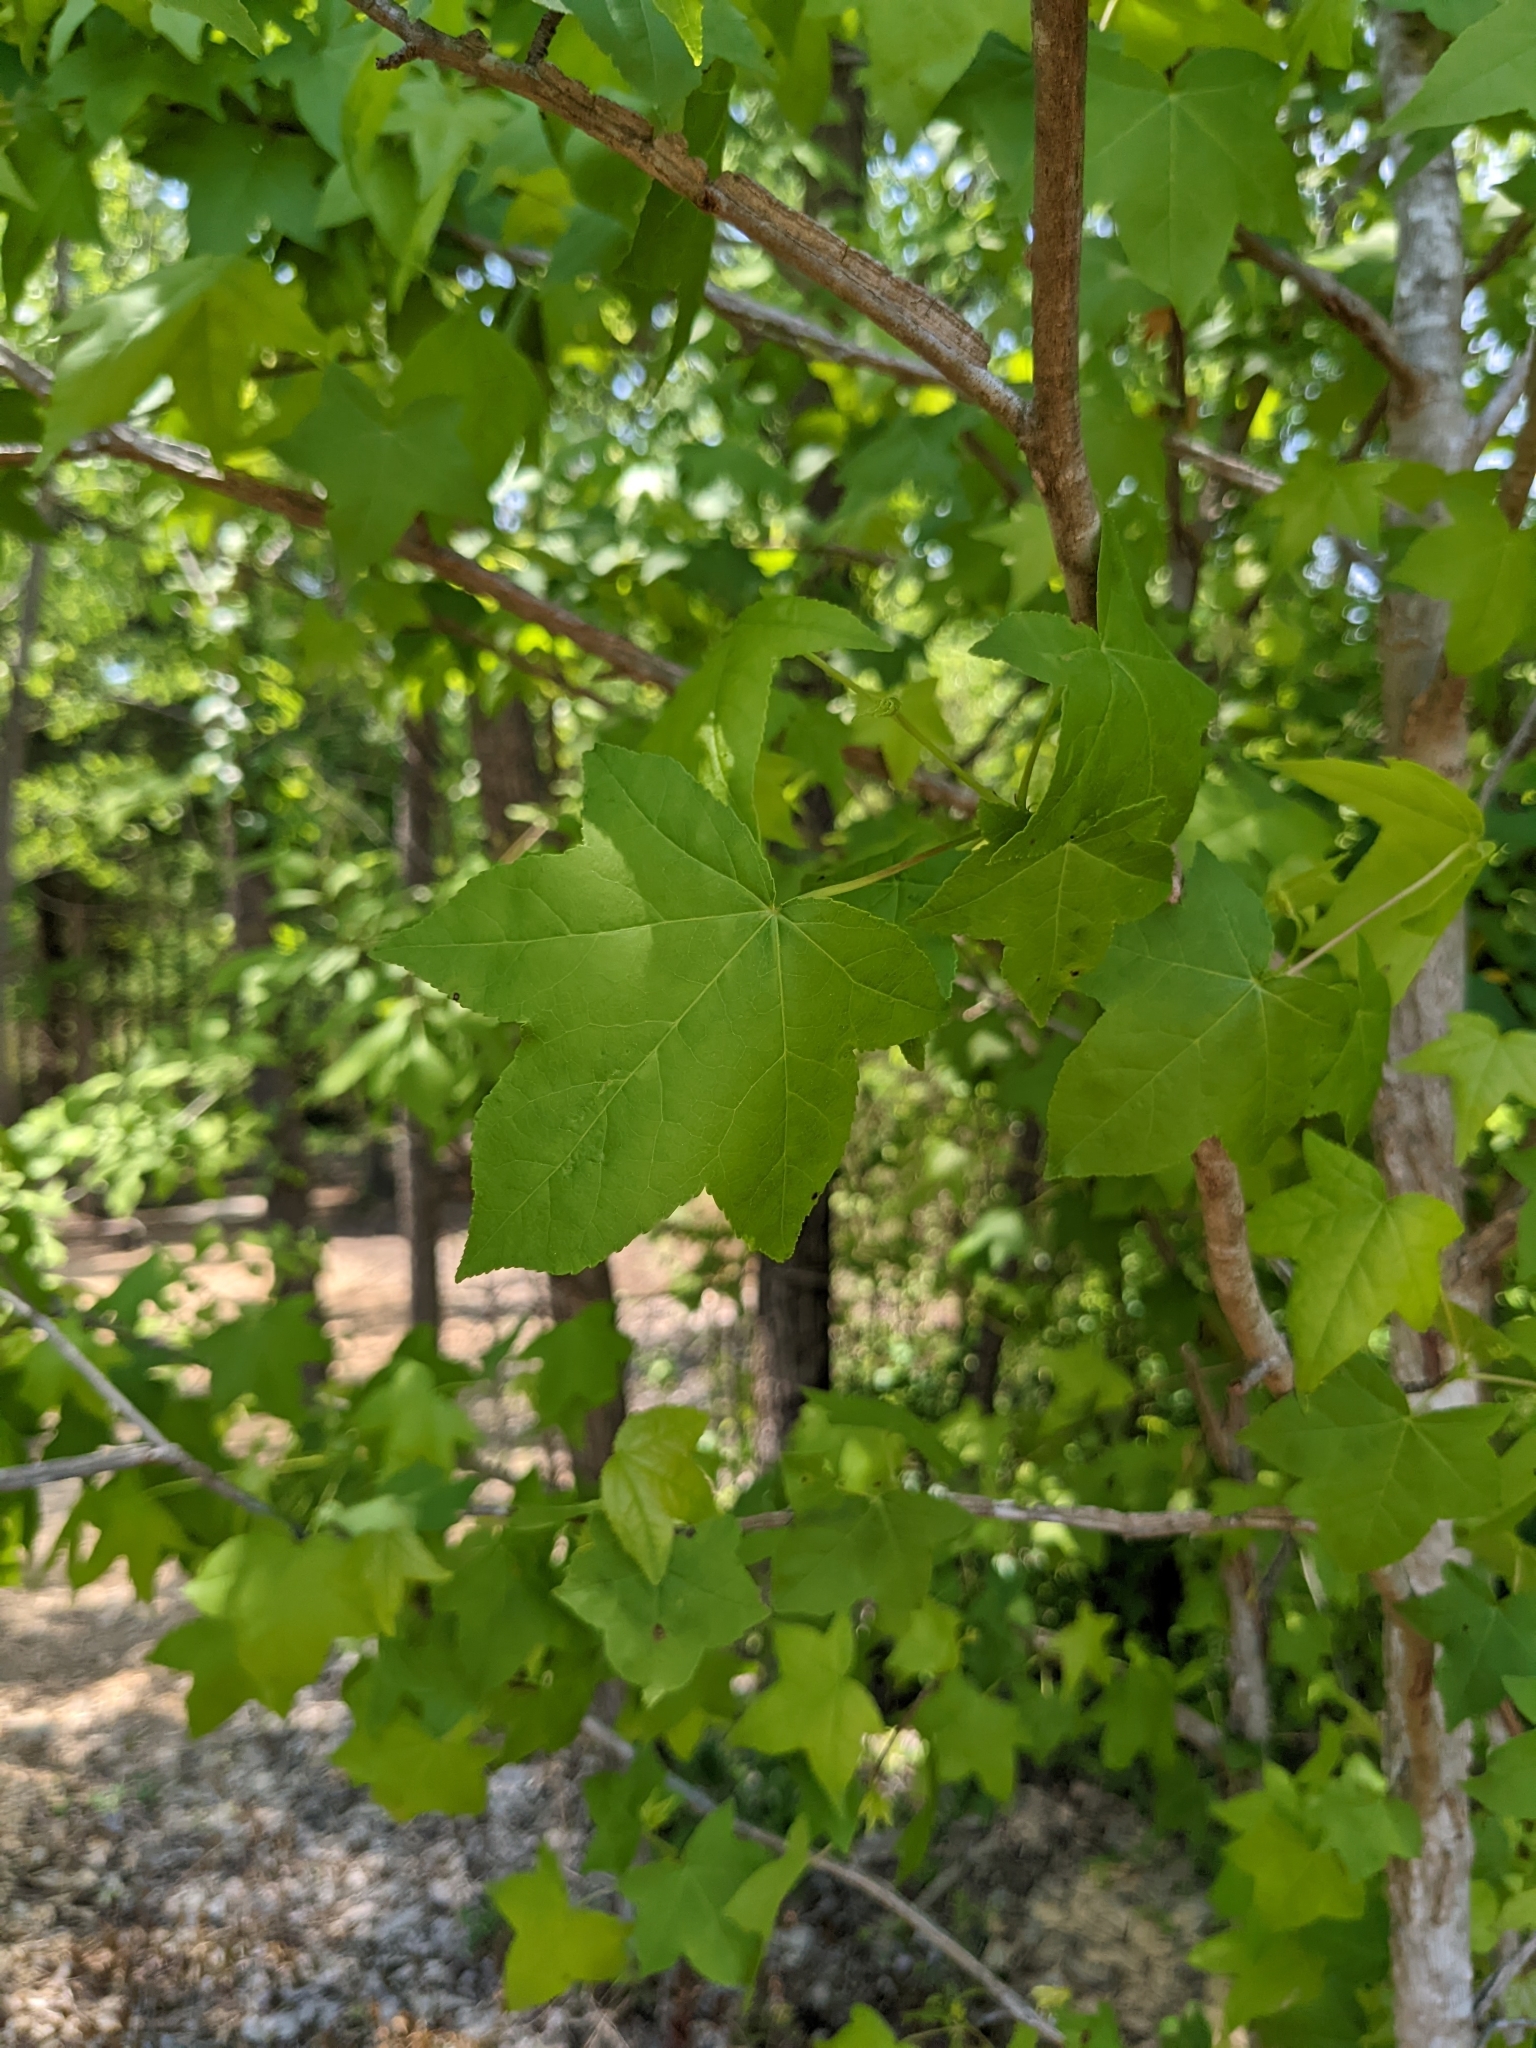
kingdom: Plantae
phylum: Tracheophyta
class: Magnoliopsida
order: Saxifragales
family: Altingiaceae
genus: Liquidambar
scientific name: Liquidambar styraciflua
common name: Sweet gum
